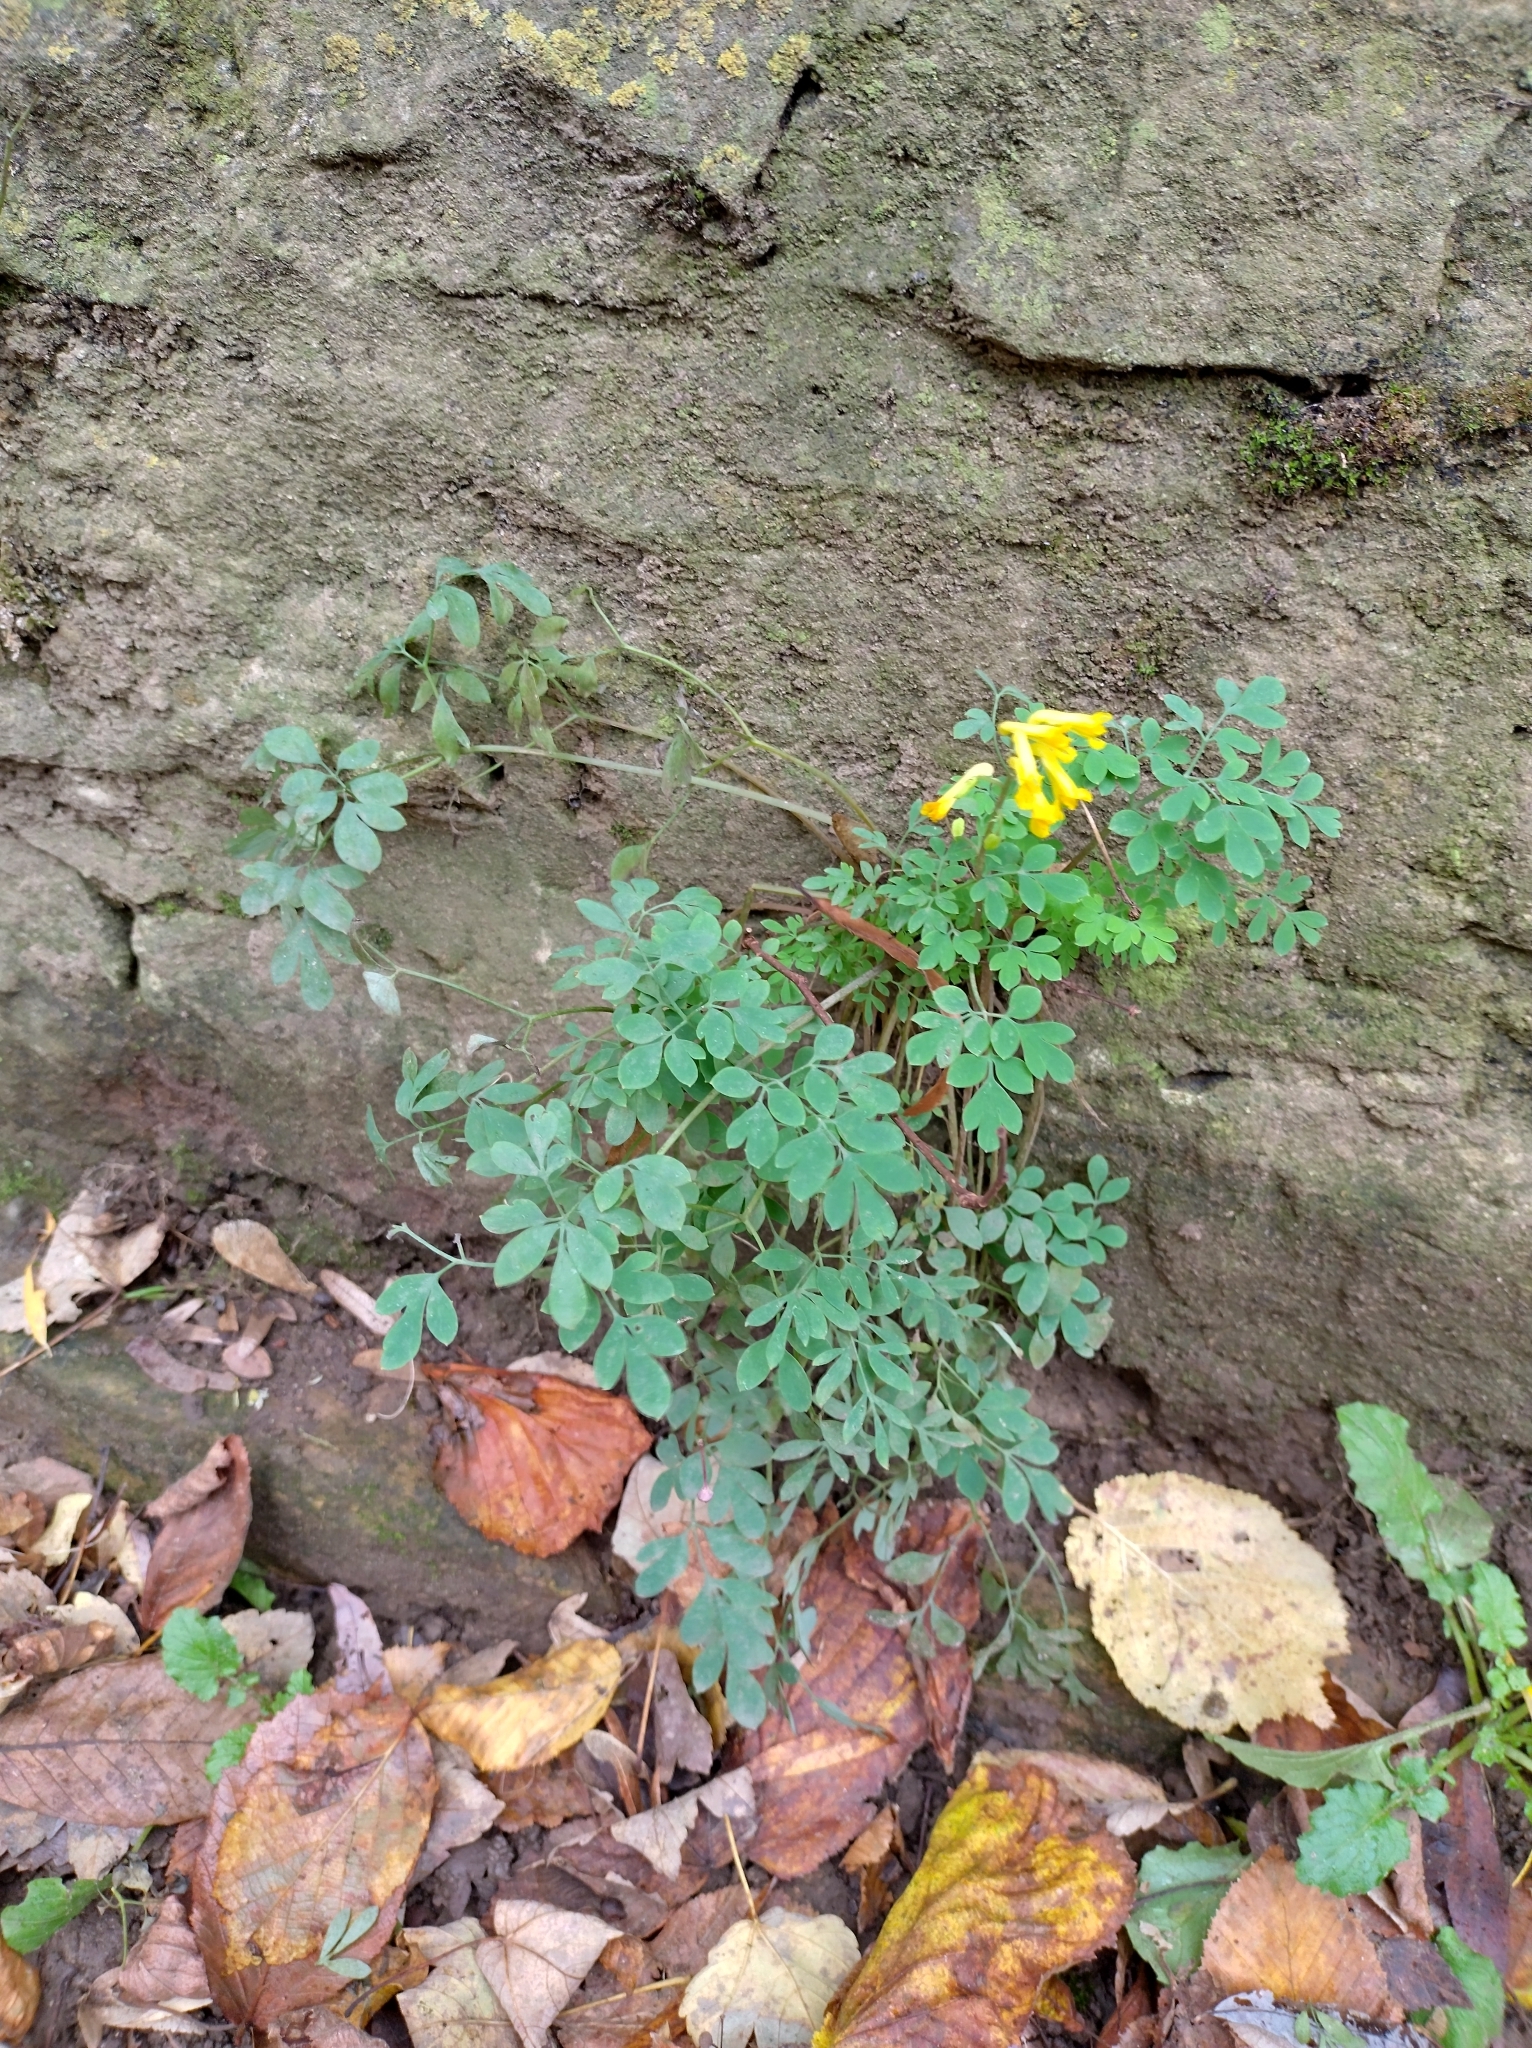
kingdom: Plantae
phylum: Tracheophyta
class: Magnoliopsida
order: Ranunculales
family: Papaveraceae
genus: Pseudofumaria
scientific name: Pseudofumaria lutea
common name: Yellow corydalis
